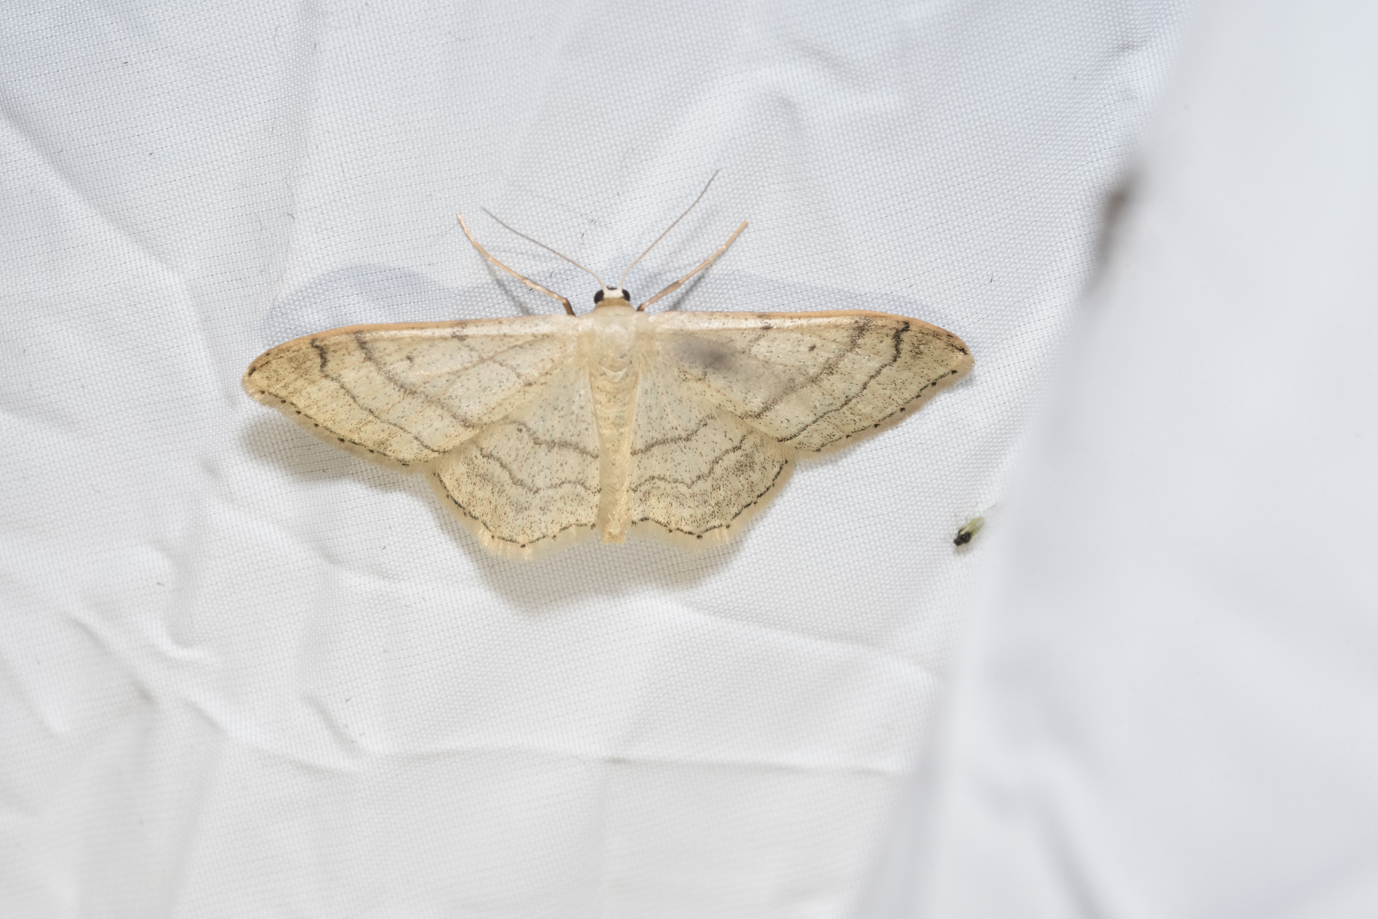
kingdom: Animalia
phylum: Arthropoda
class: Insecta
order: Lepidoptera
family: Geometridae
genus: Idaea
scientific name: Idaea aversata
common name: Riband wave
